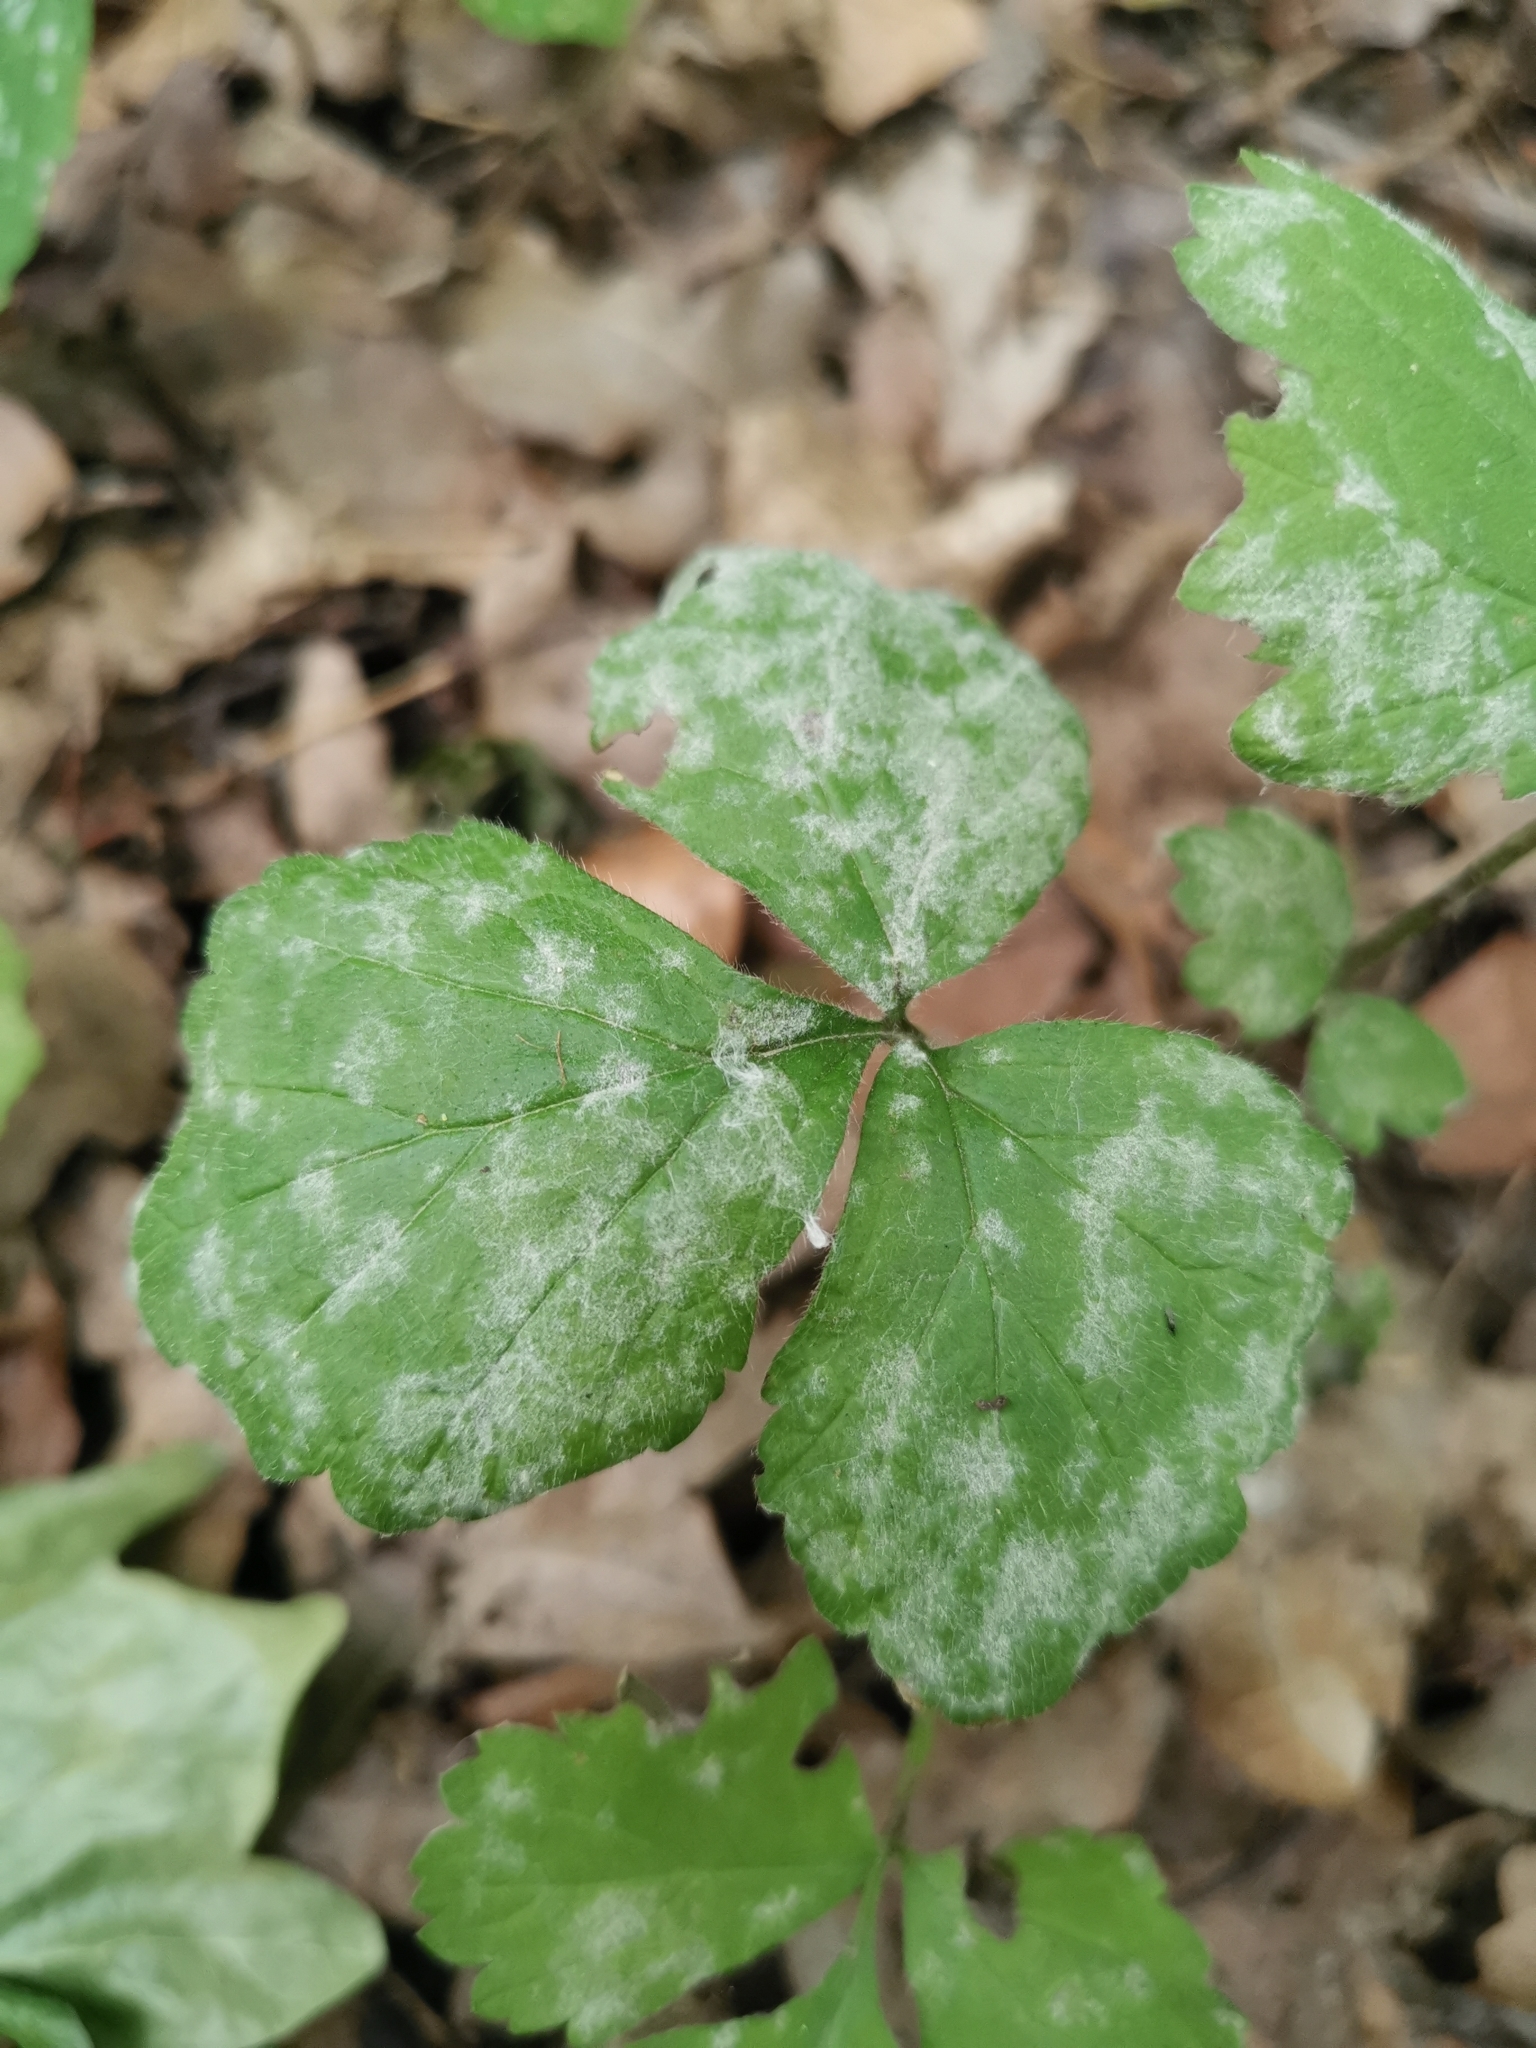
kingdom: Fungi
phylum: Ascomycota
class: Leotiomycetes
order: Helotiales
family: Erysiphaceae
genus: Podosphaera
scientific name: Podosphaera aphanis
